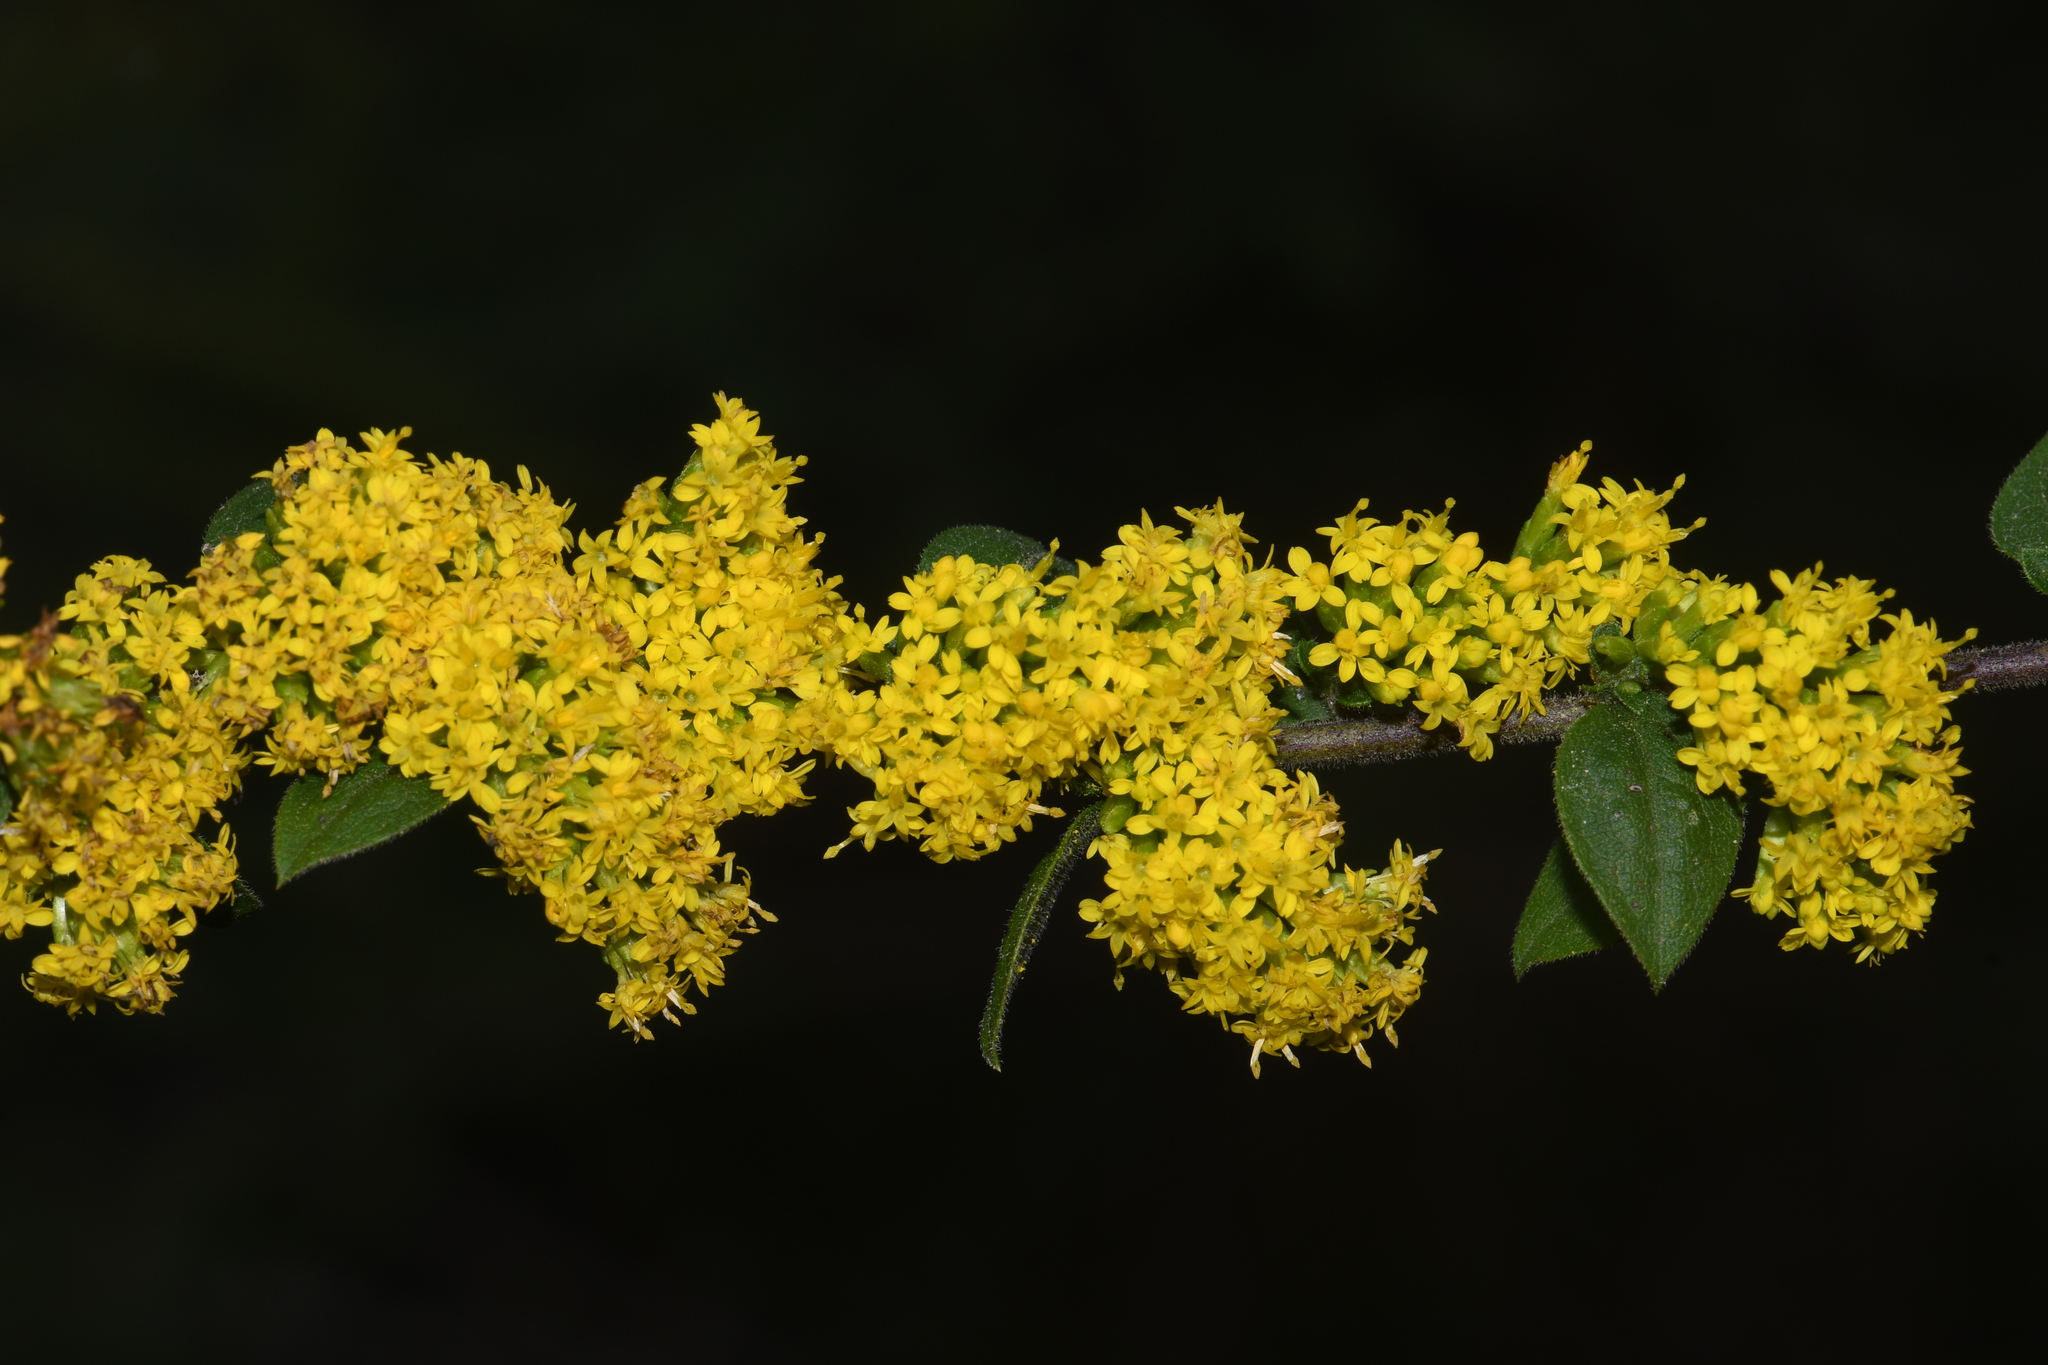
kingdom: Plantae
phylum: Tracheophyta
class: Magnoliopsida
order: Asterales
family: Asteraceae
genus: Solidago
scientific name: Solidago sphacelata
